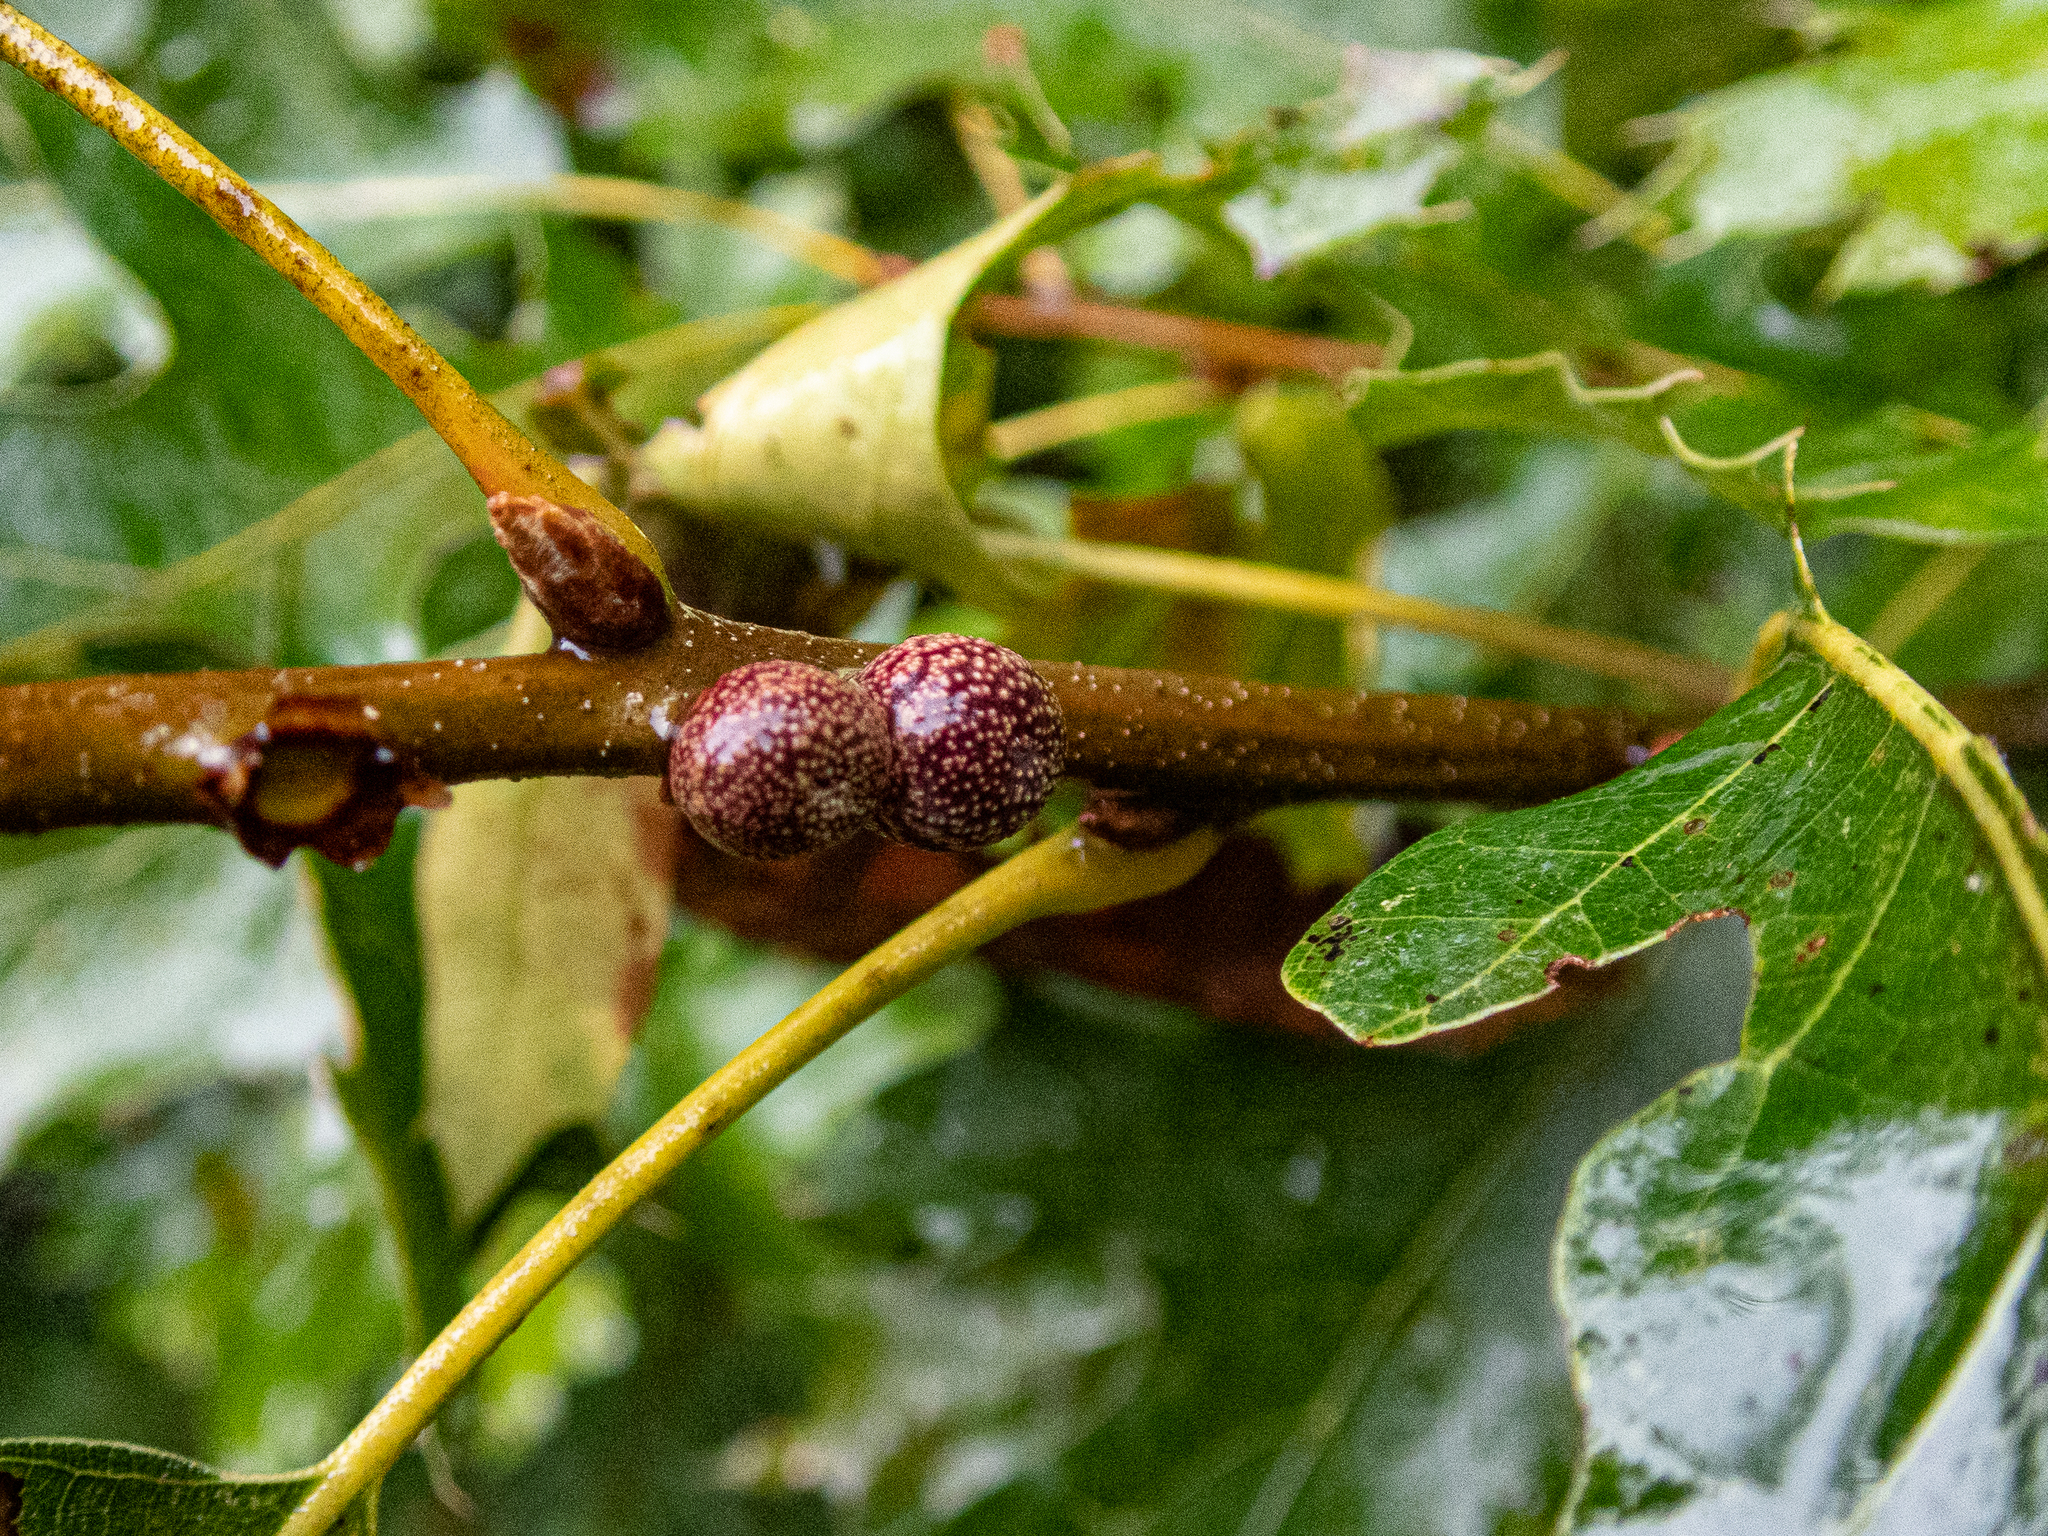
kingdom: Animalia
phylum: Arthropoda
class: Insecta
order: Hymenoptera
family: Cynipidae
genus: Kokkocynips
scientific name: Kokkocynips imbricariae
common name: Banded bullet gall wasp
